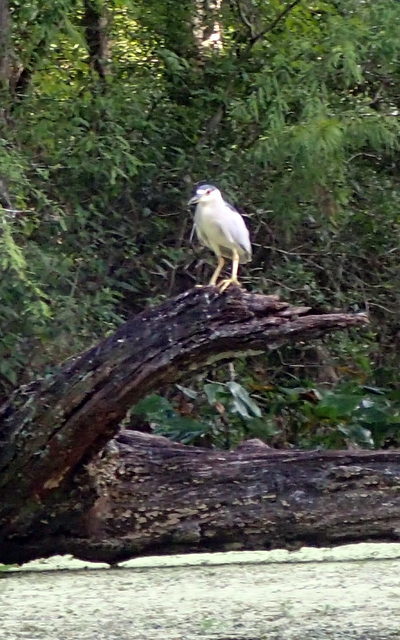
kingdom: Animalia
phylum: Chordata
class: Aves
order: Pelecaniformes
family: Ardeidae
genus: Nycticorax
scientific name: Nycticorax nycticorax
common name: Black-crowned night heron
